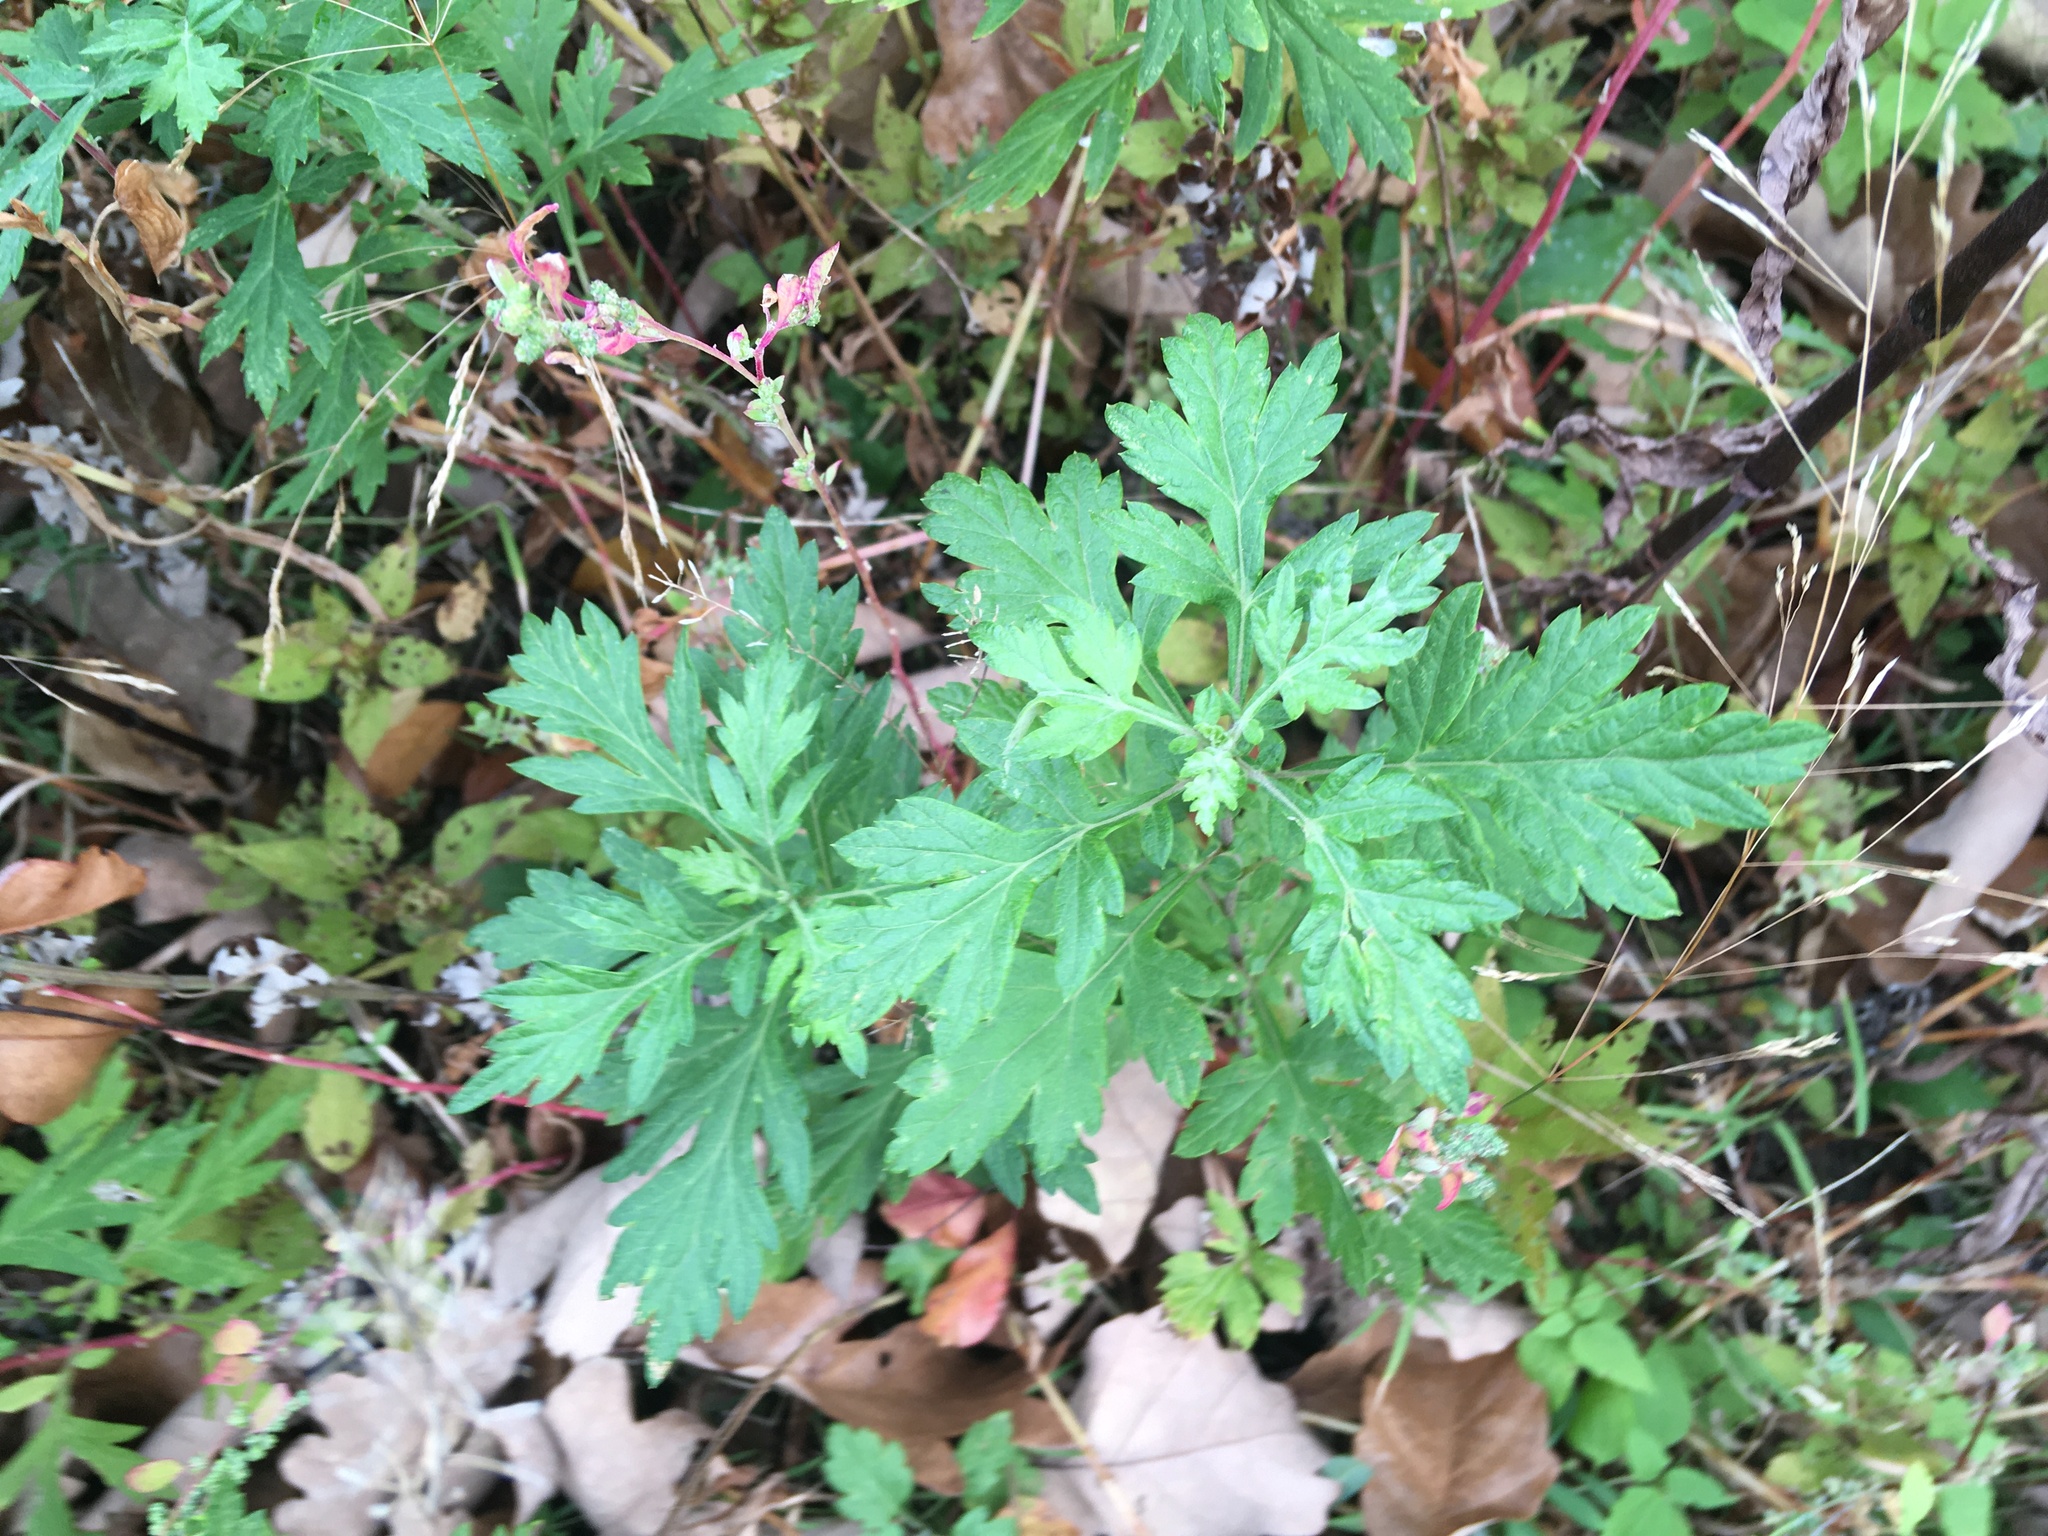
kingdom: Plantae
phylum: Tracheophyta
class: Magnoliopsida
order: Asterales
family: Asteraceae
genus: Artemisia
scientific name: Artemisia vulgaris
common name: Mugwort
